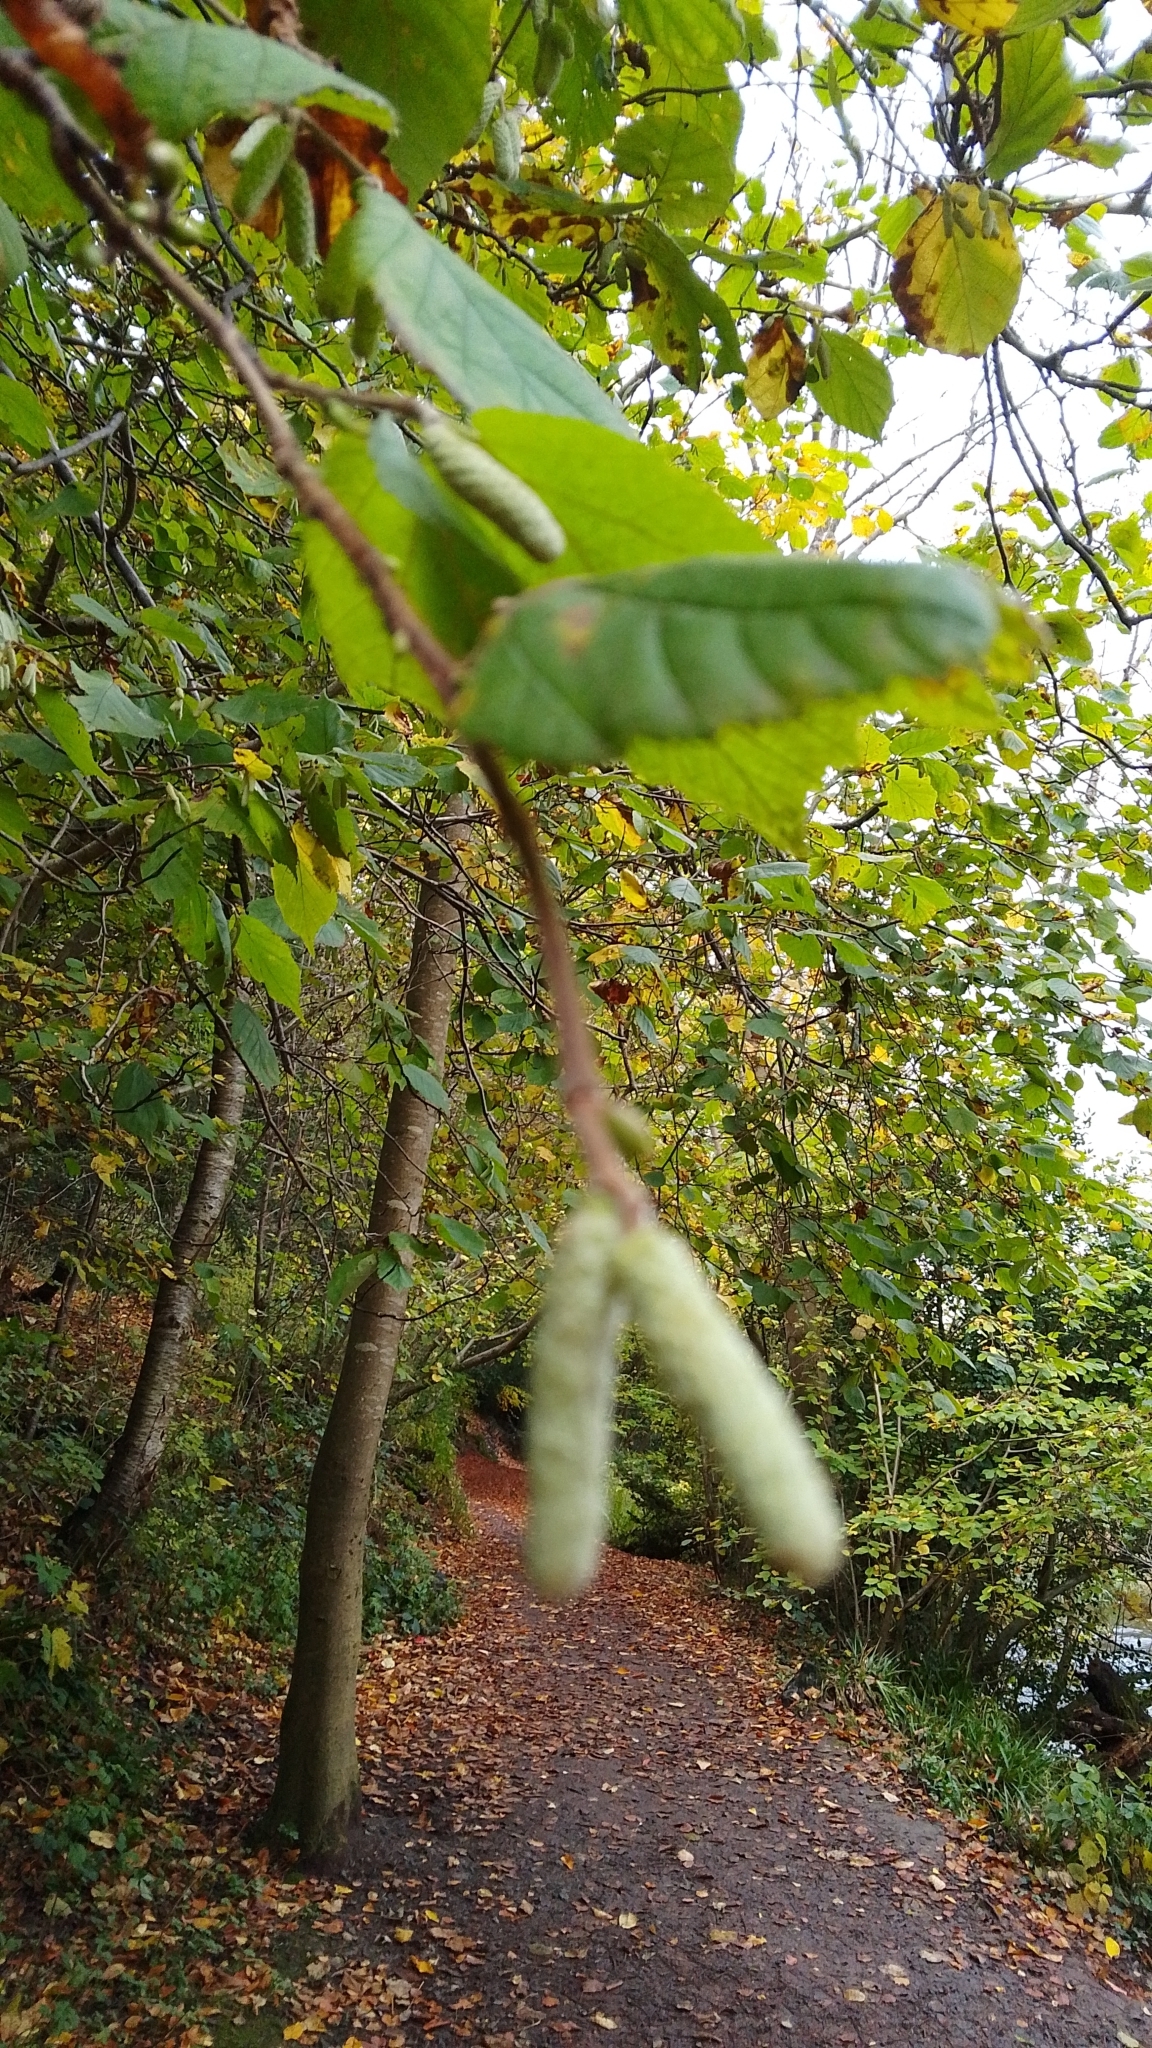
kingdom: Plantae
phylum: Tracheophyta
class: Magnoliopsida
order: Fagales
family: Betulaceae
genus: Corylus
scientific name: Corylus avellana
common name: European hazel
